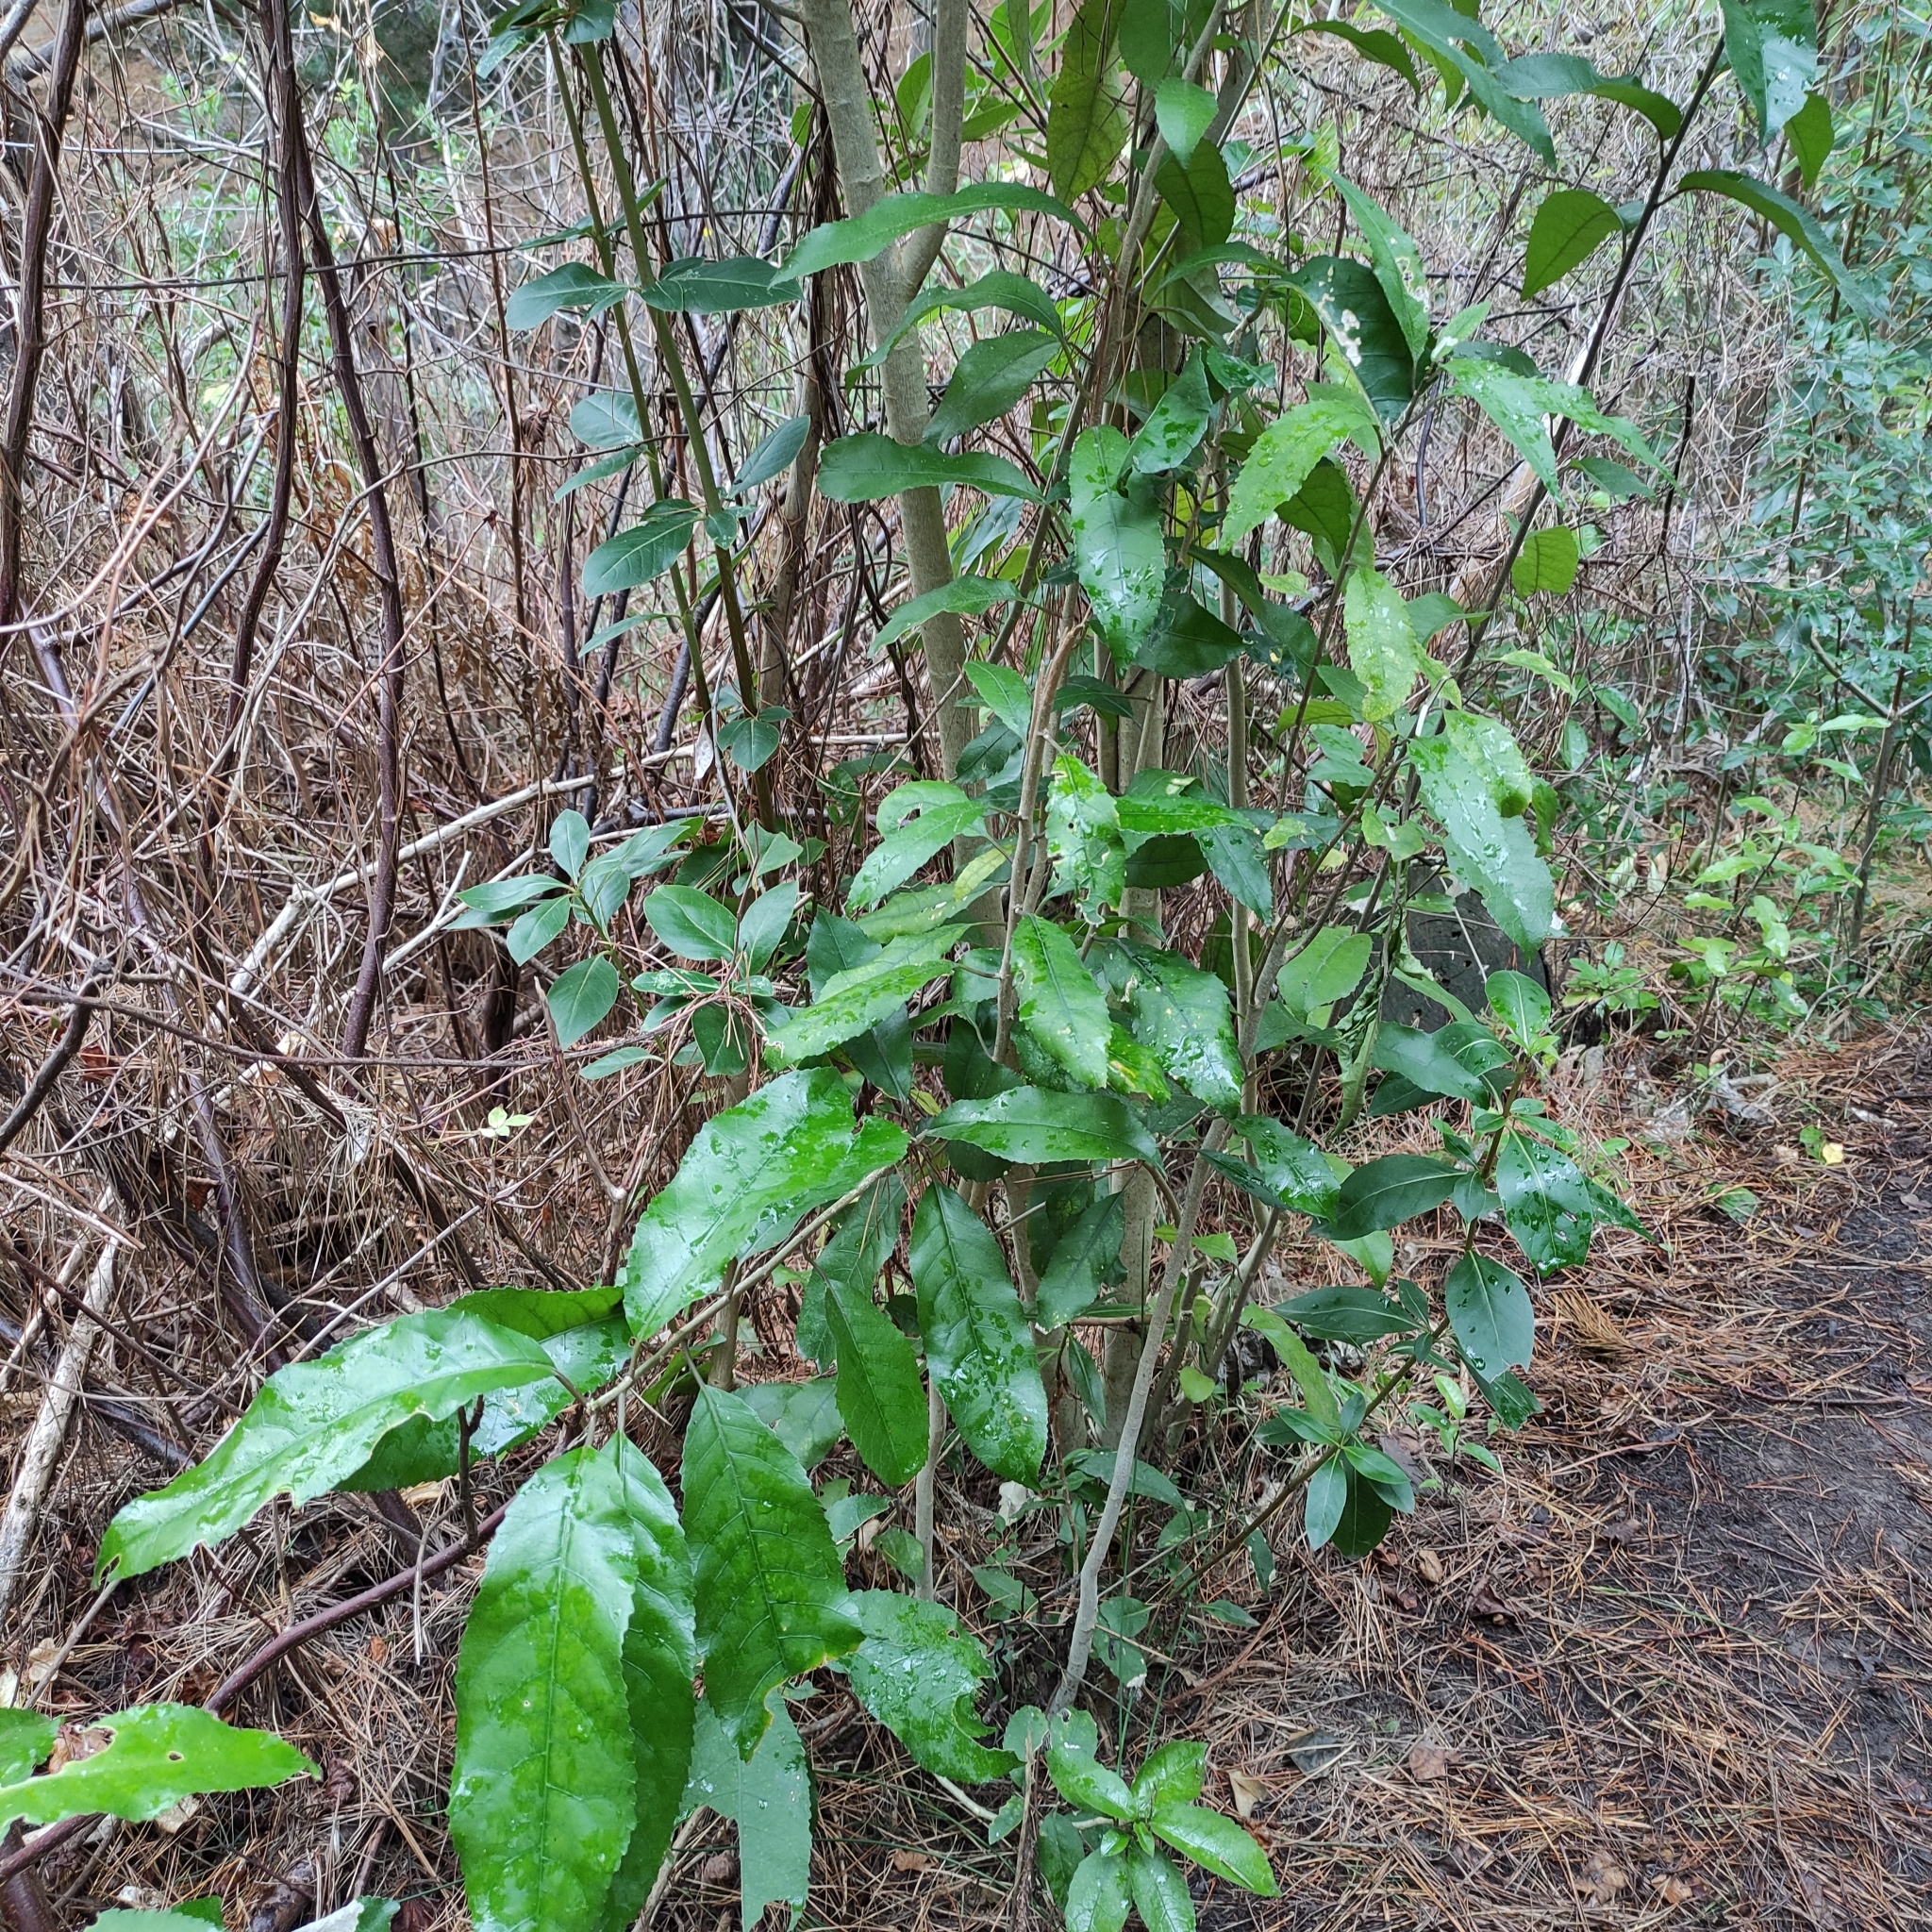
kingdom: Plantae
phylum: Tracheophyta
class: Magnoliopsida
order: Malpighiales
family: Violaceae
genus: Melicytus
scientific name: Melicytus ramiflorus
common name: Mahoe
